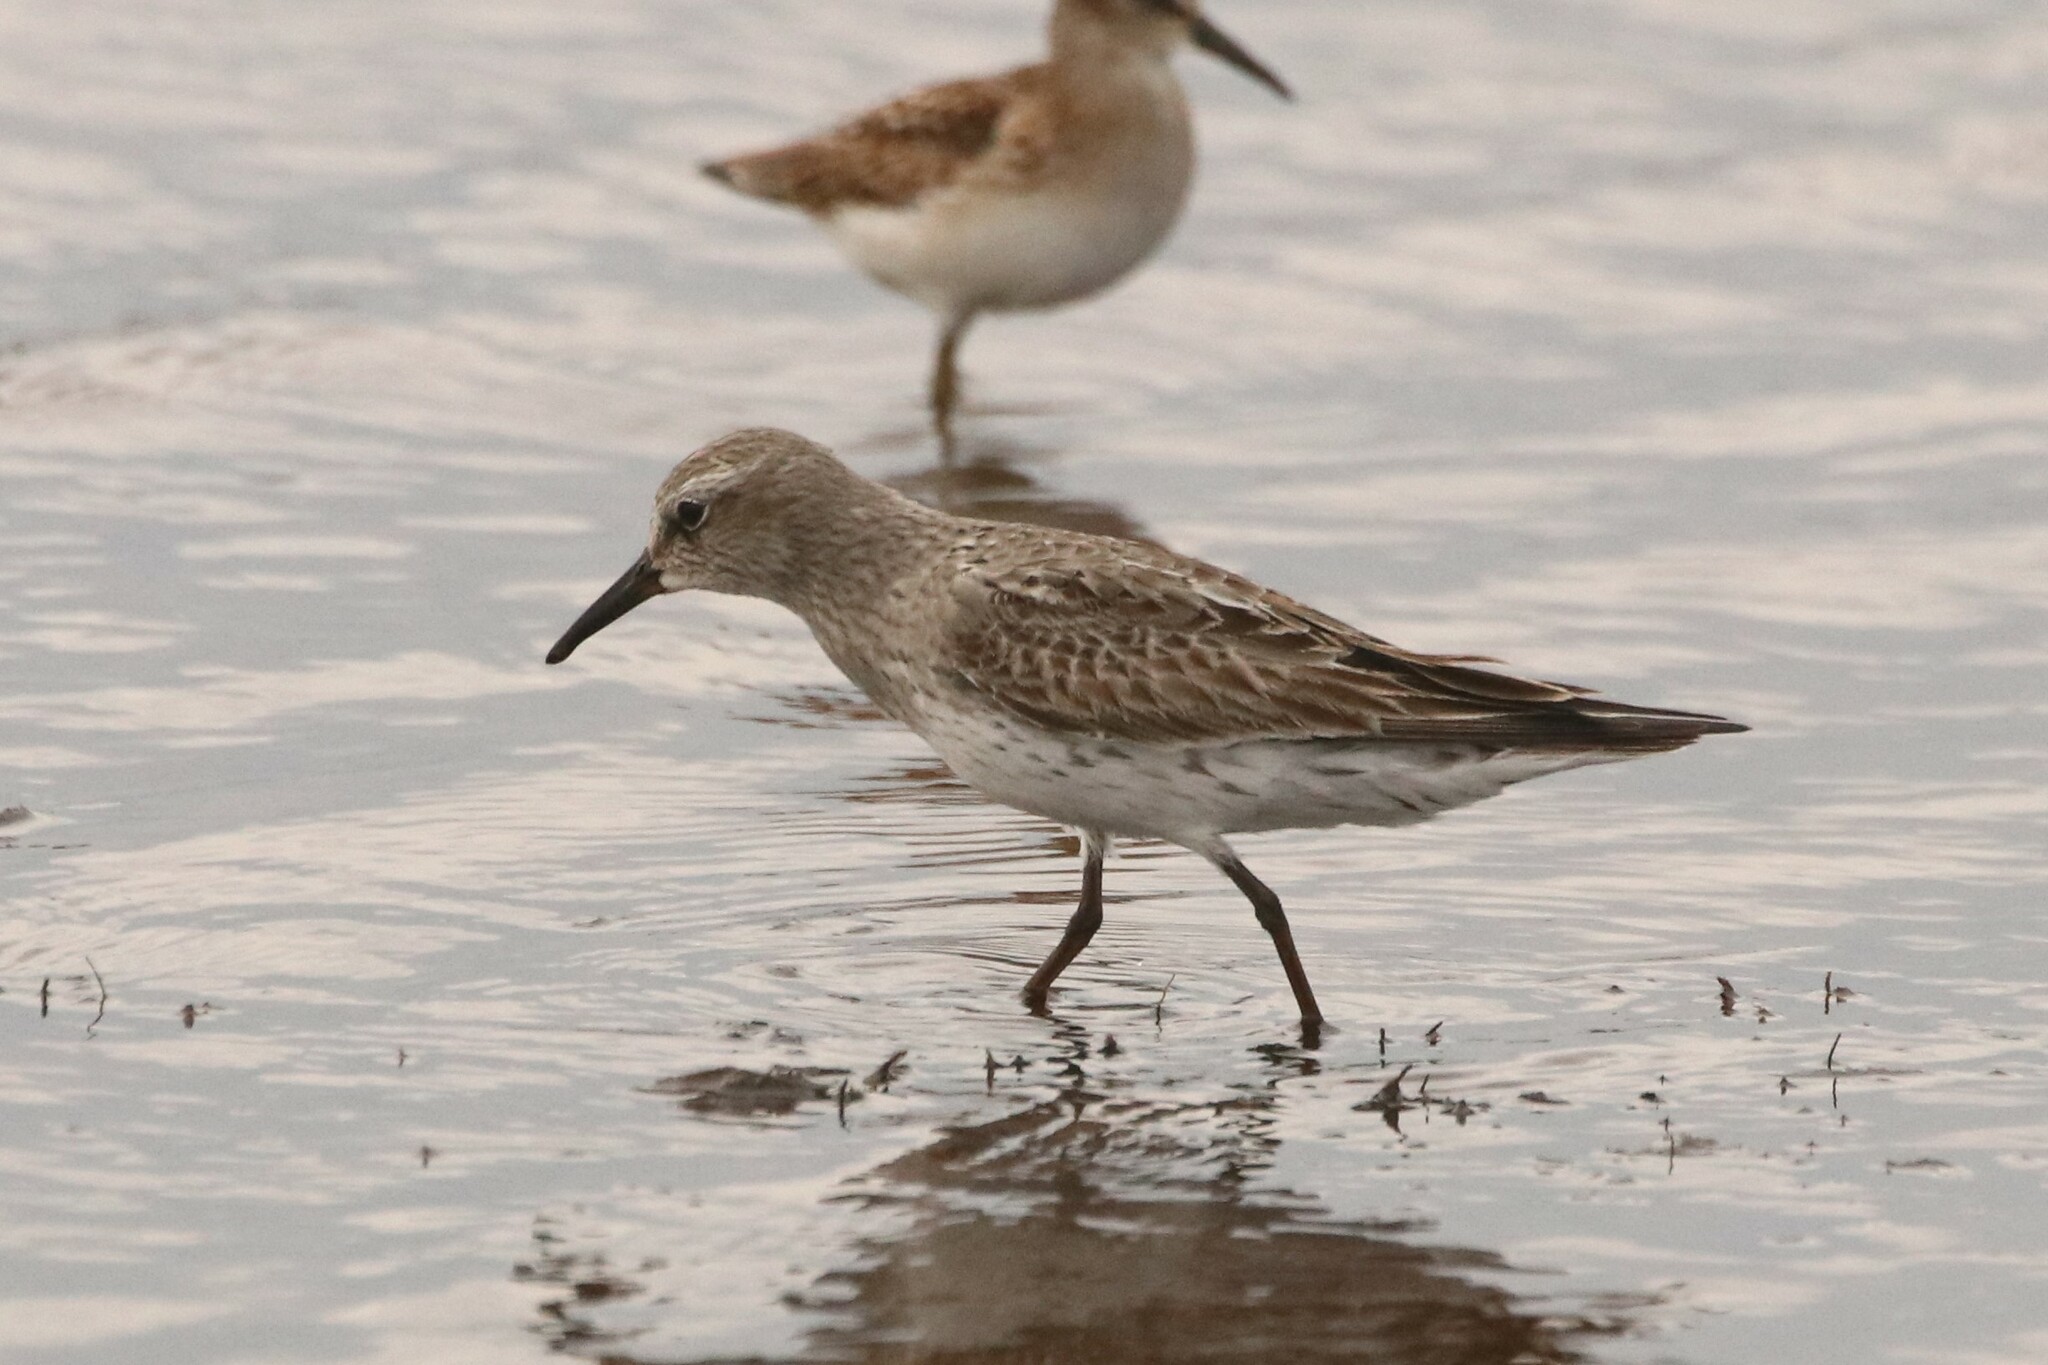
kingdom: Animalia
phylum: Chordata
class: Aves
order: Charadriiformes
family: Scolopacidae
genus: Calidris
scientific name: Calidris fuscicollis
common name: White-rumped sandpiper
